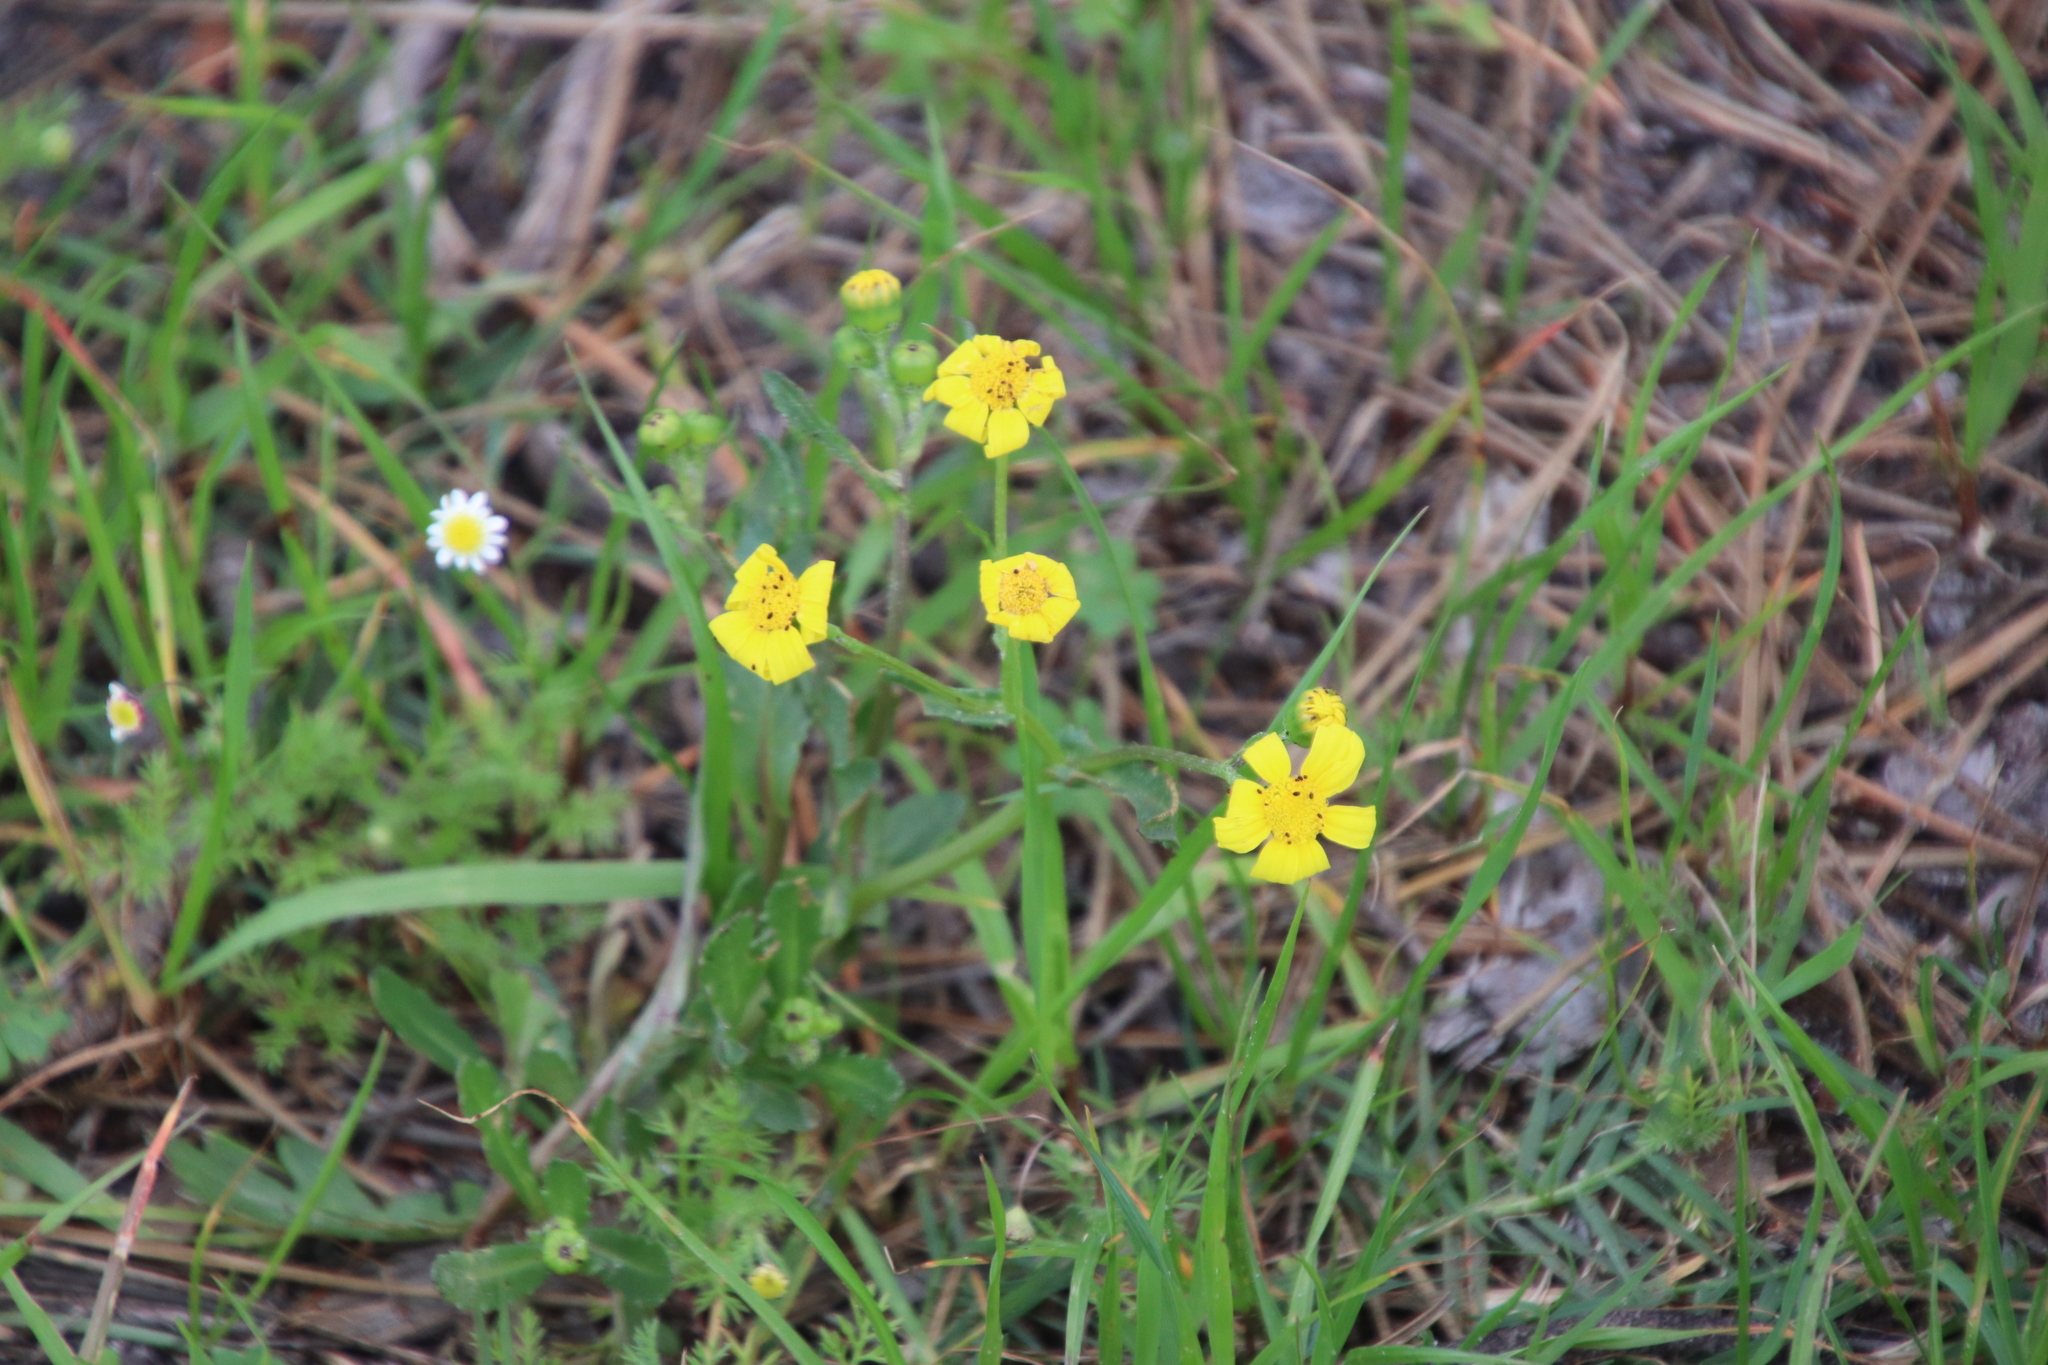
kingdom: Plantae
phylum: Tracheophyta
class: Magnoliopsida
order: Asterales
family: Asteraceae
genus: Senecio
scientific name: Senecio littoreus
